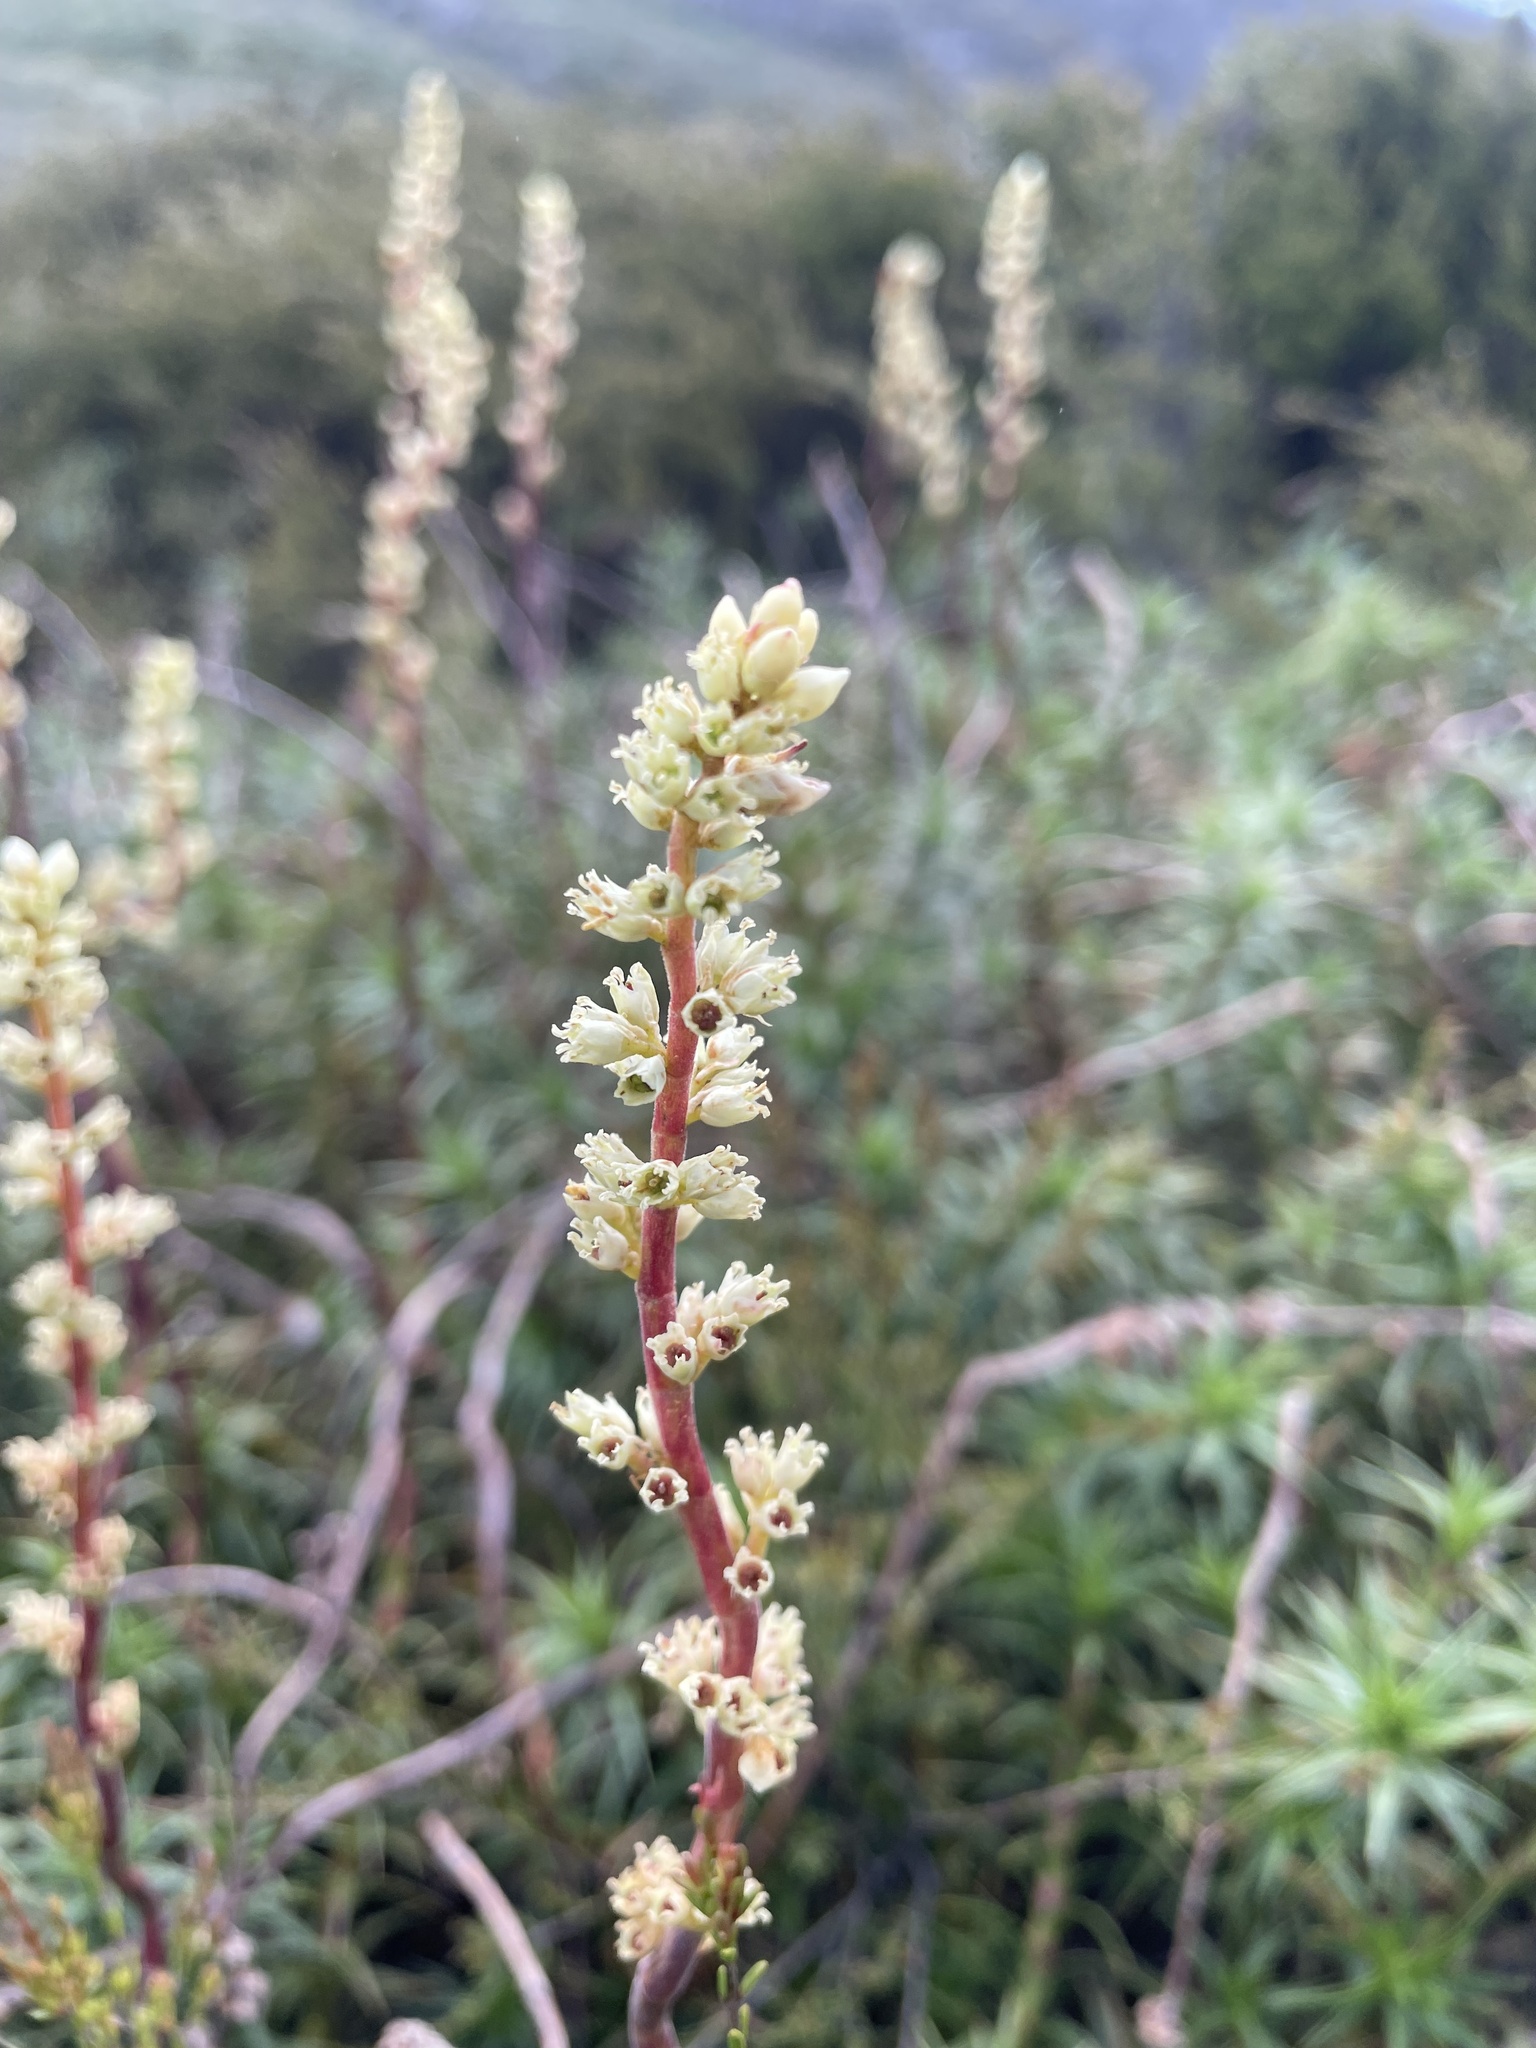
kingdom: Plantae
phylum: Tracheophyta
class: Magnoliopsida
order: Ericales
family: Ericaceae
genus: Dracophyllum
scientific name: Dracophyllum continentis
